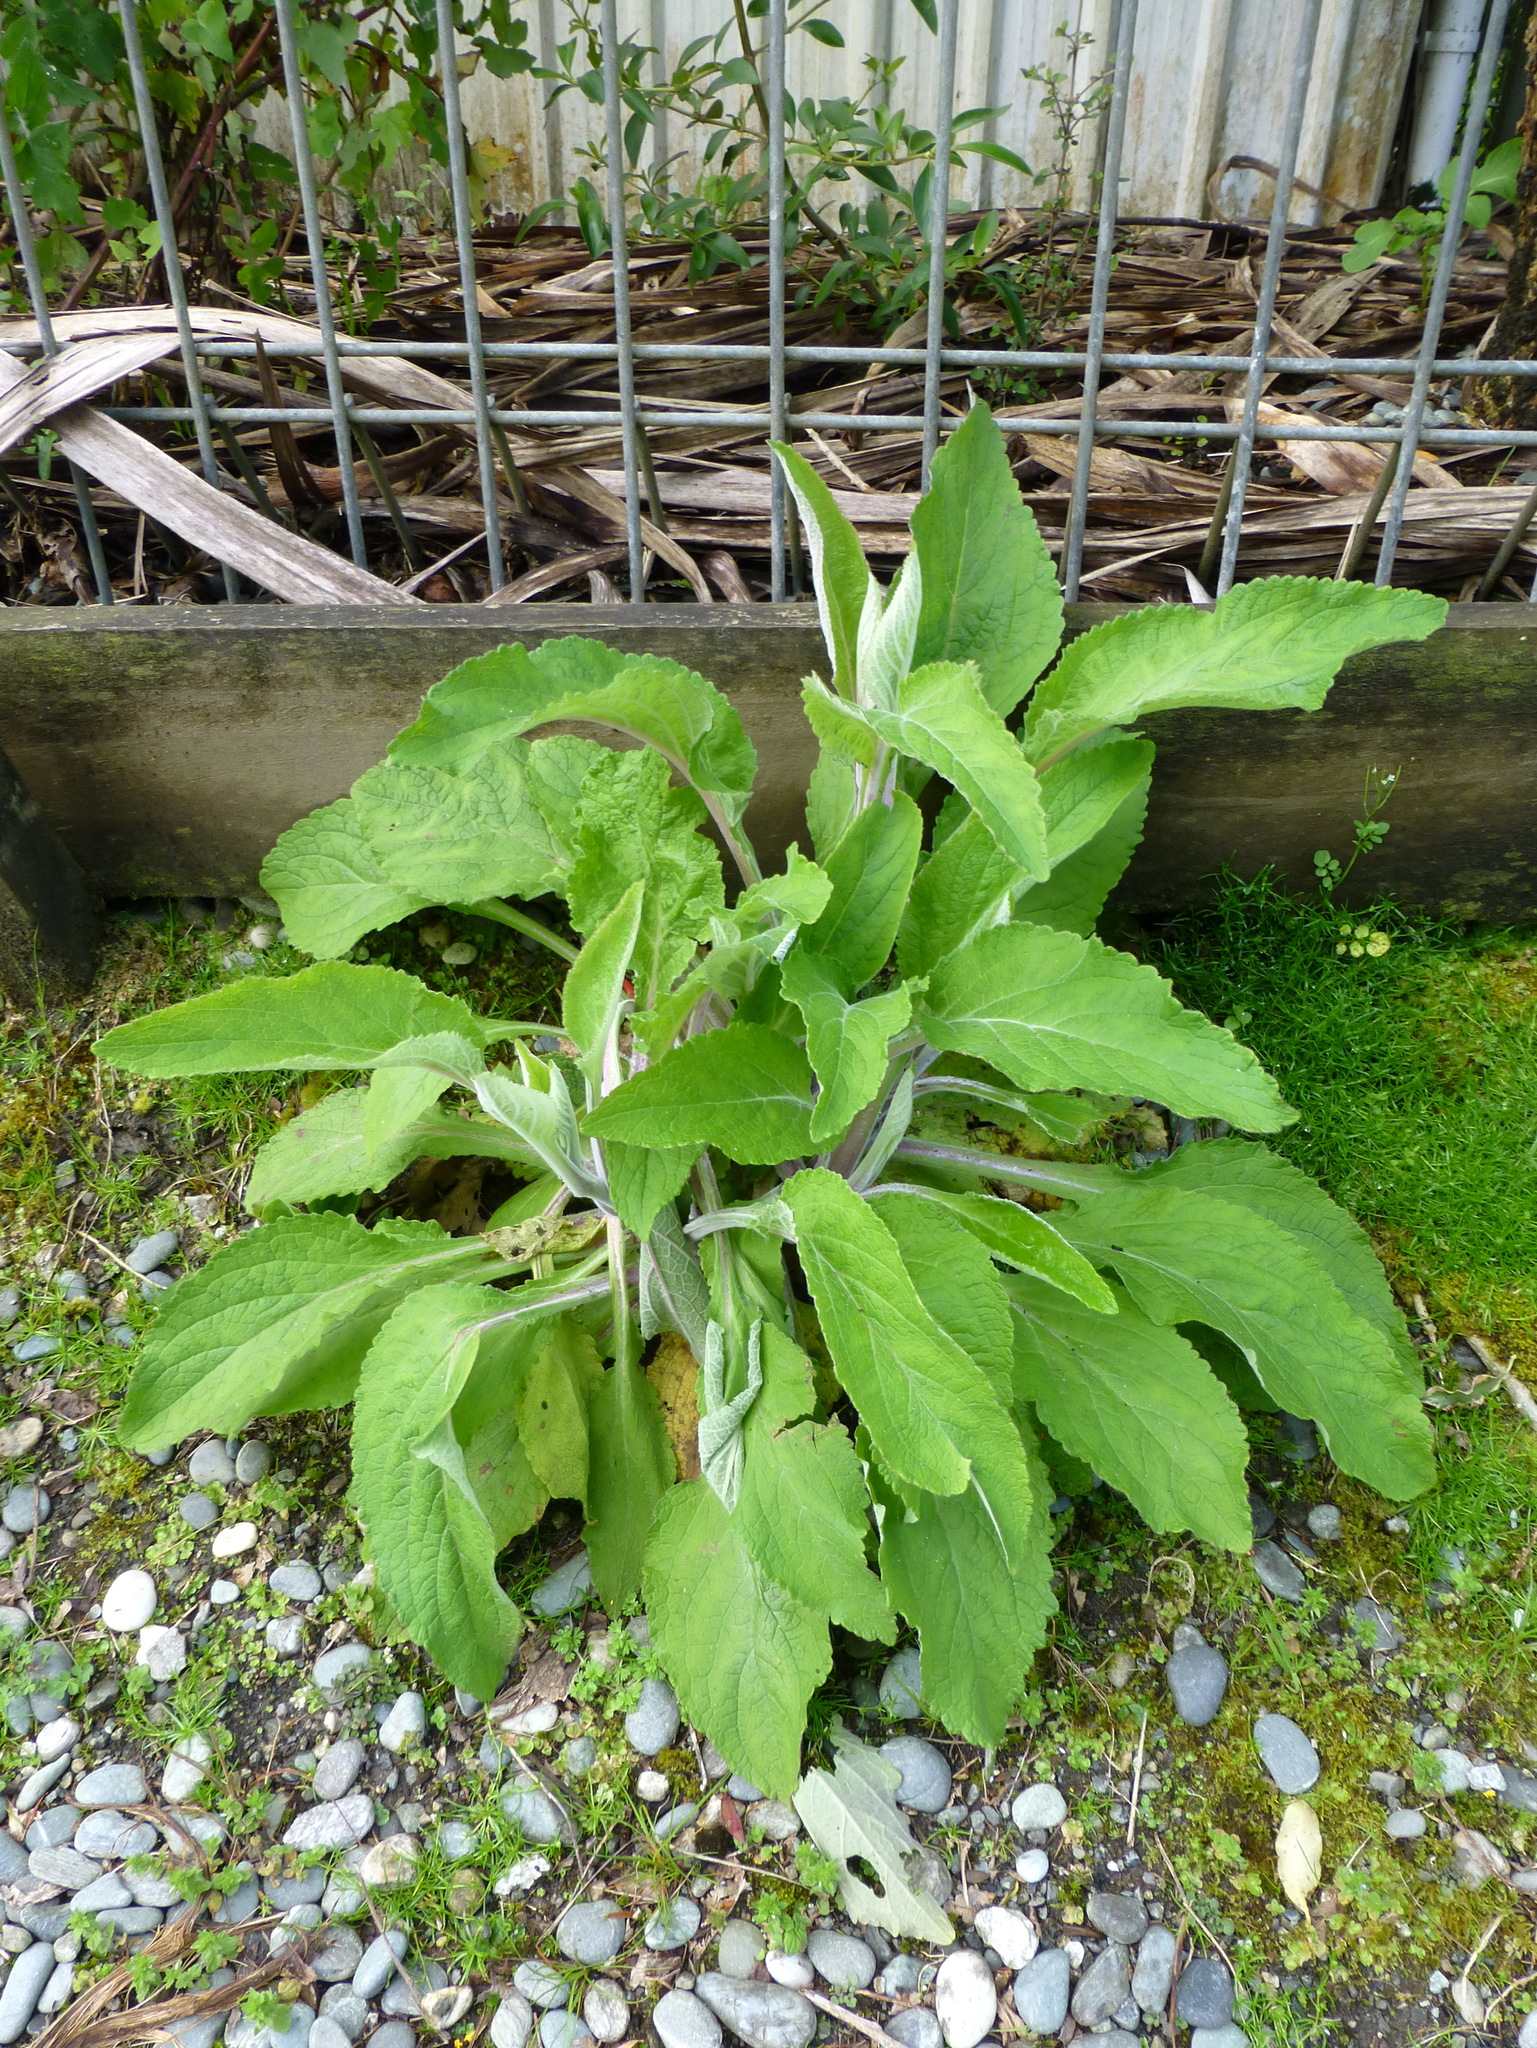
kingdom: Plantae
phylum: Tracheophyta
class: Magnoliopsida
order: Lamiales
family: Plantaginaceae
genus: Digitalis
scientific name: Digitalis purpurea
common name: Foxglove
